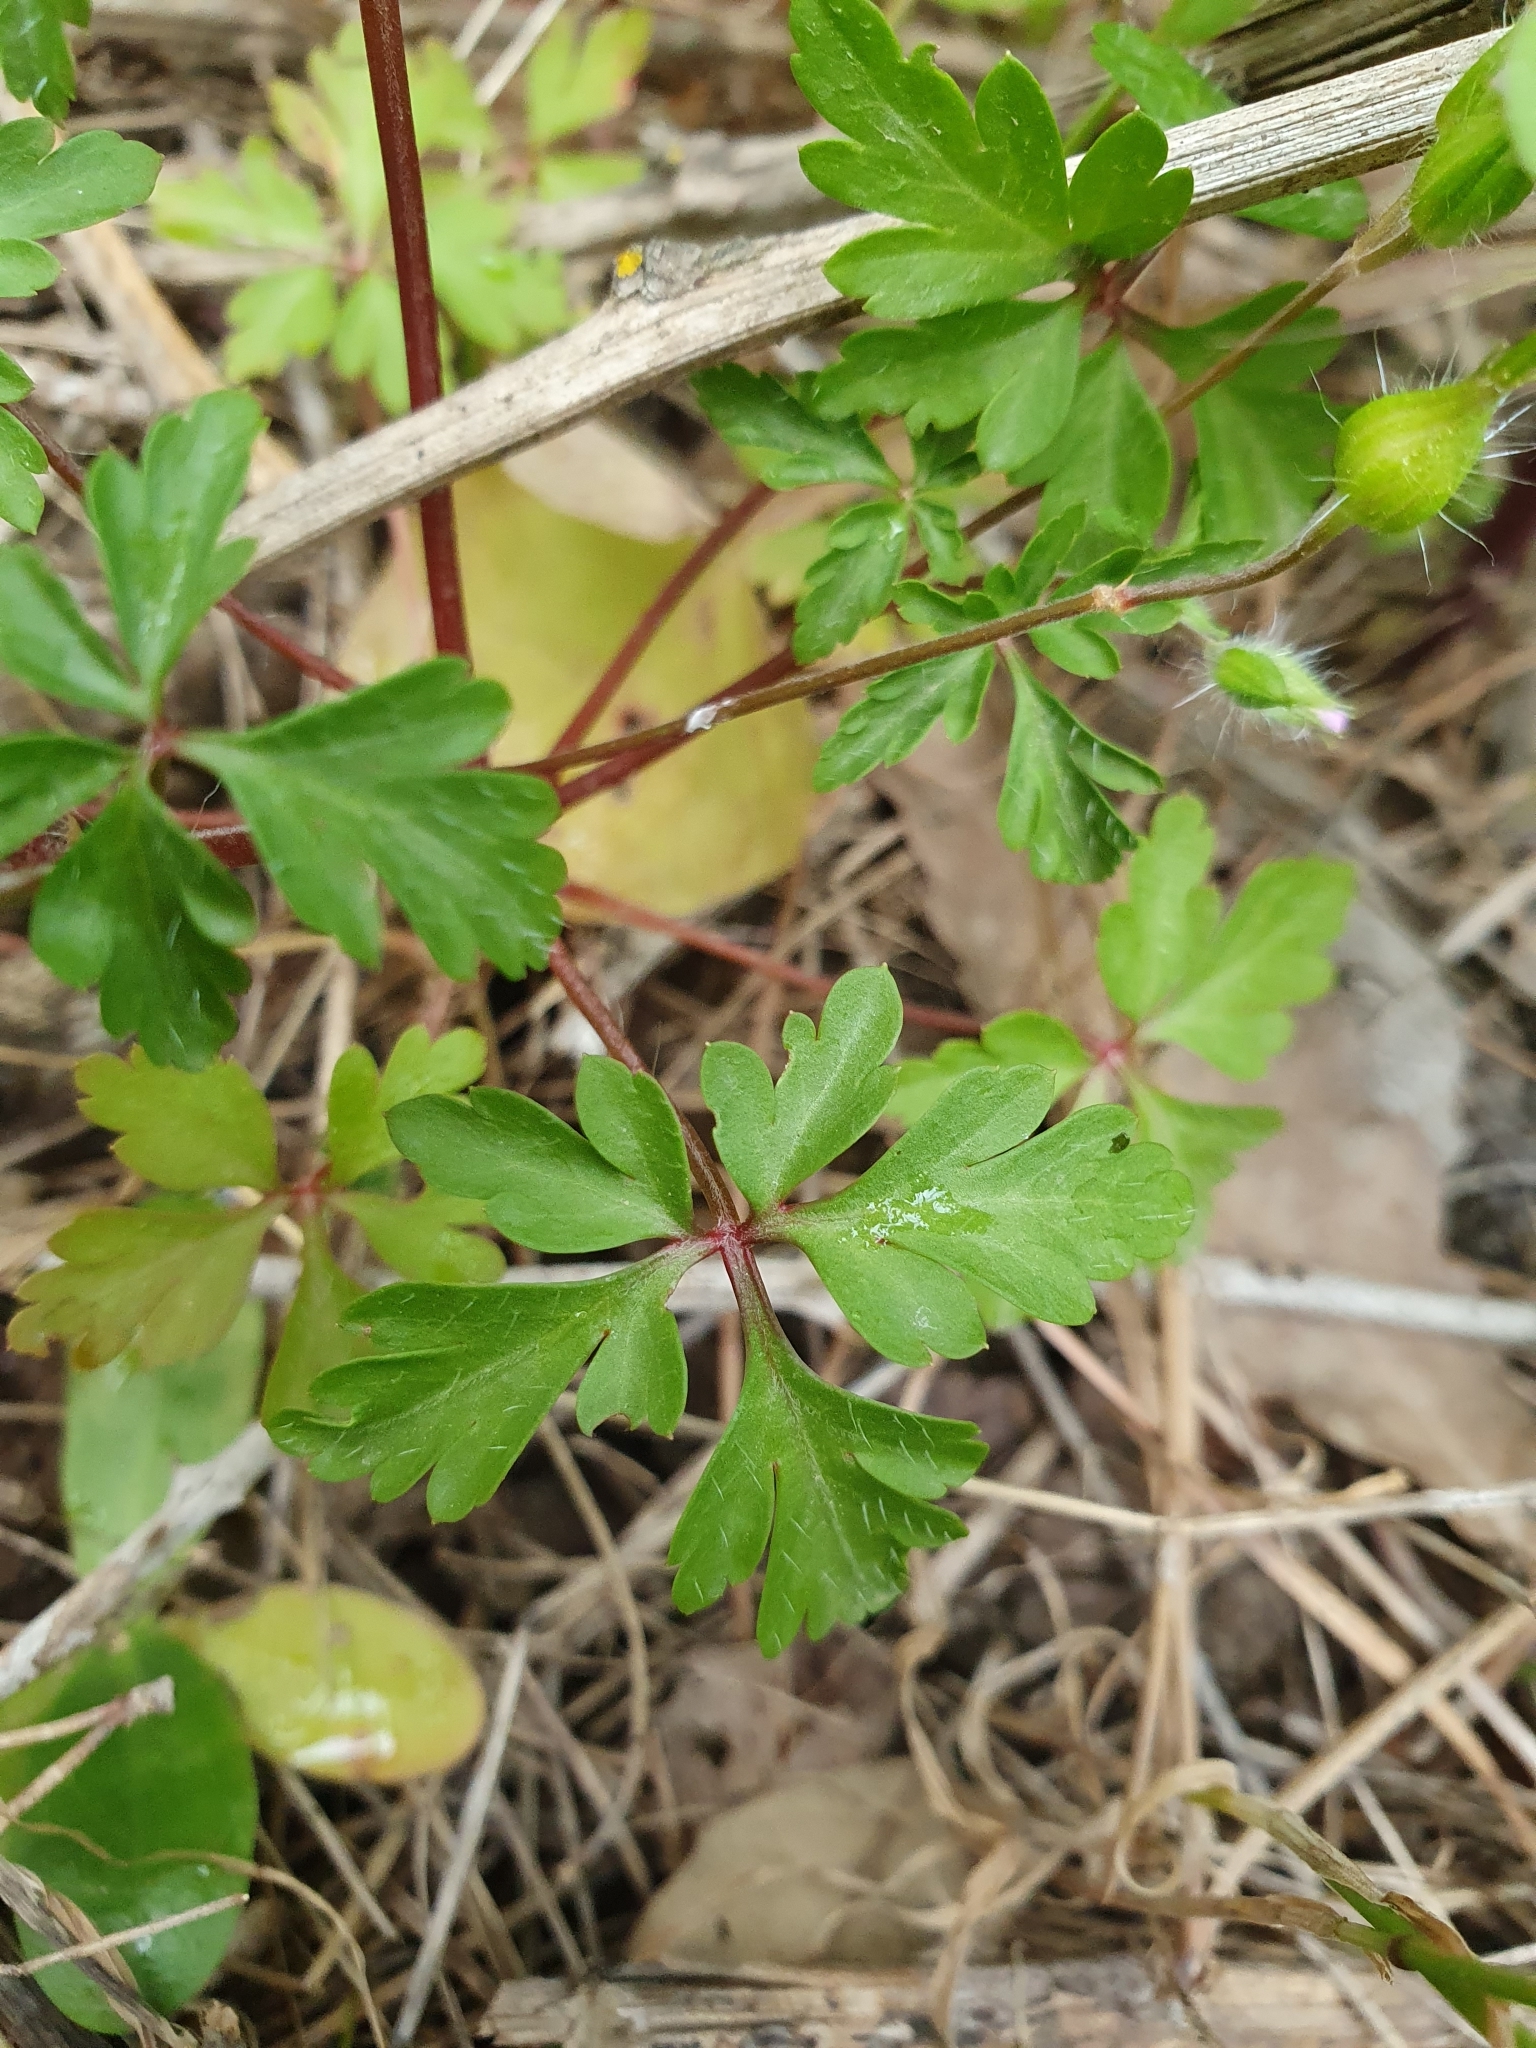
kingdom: Plantae
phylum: Tracheophyta
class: Magnoliopsida
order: Geraniales
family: Geraniaceae
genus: Geranium
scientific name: Geranium purpureum
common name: Little-robin
